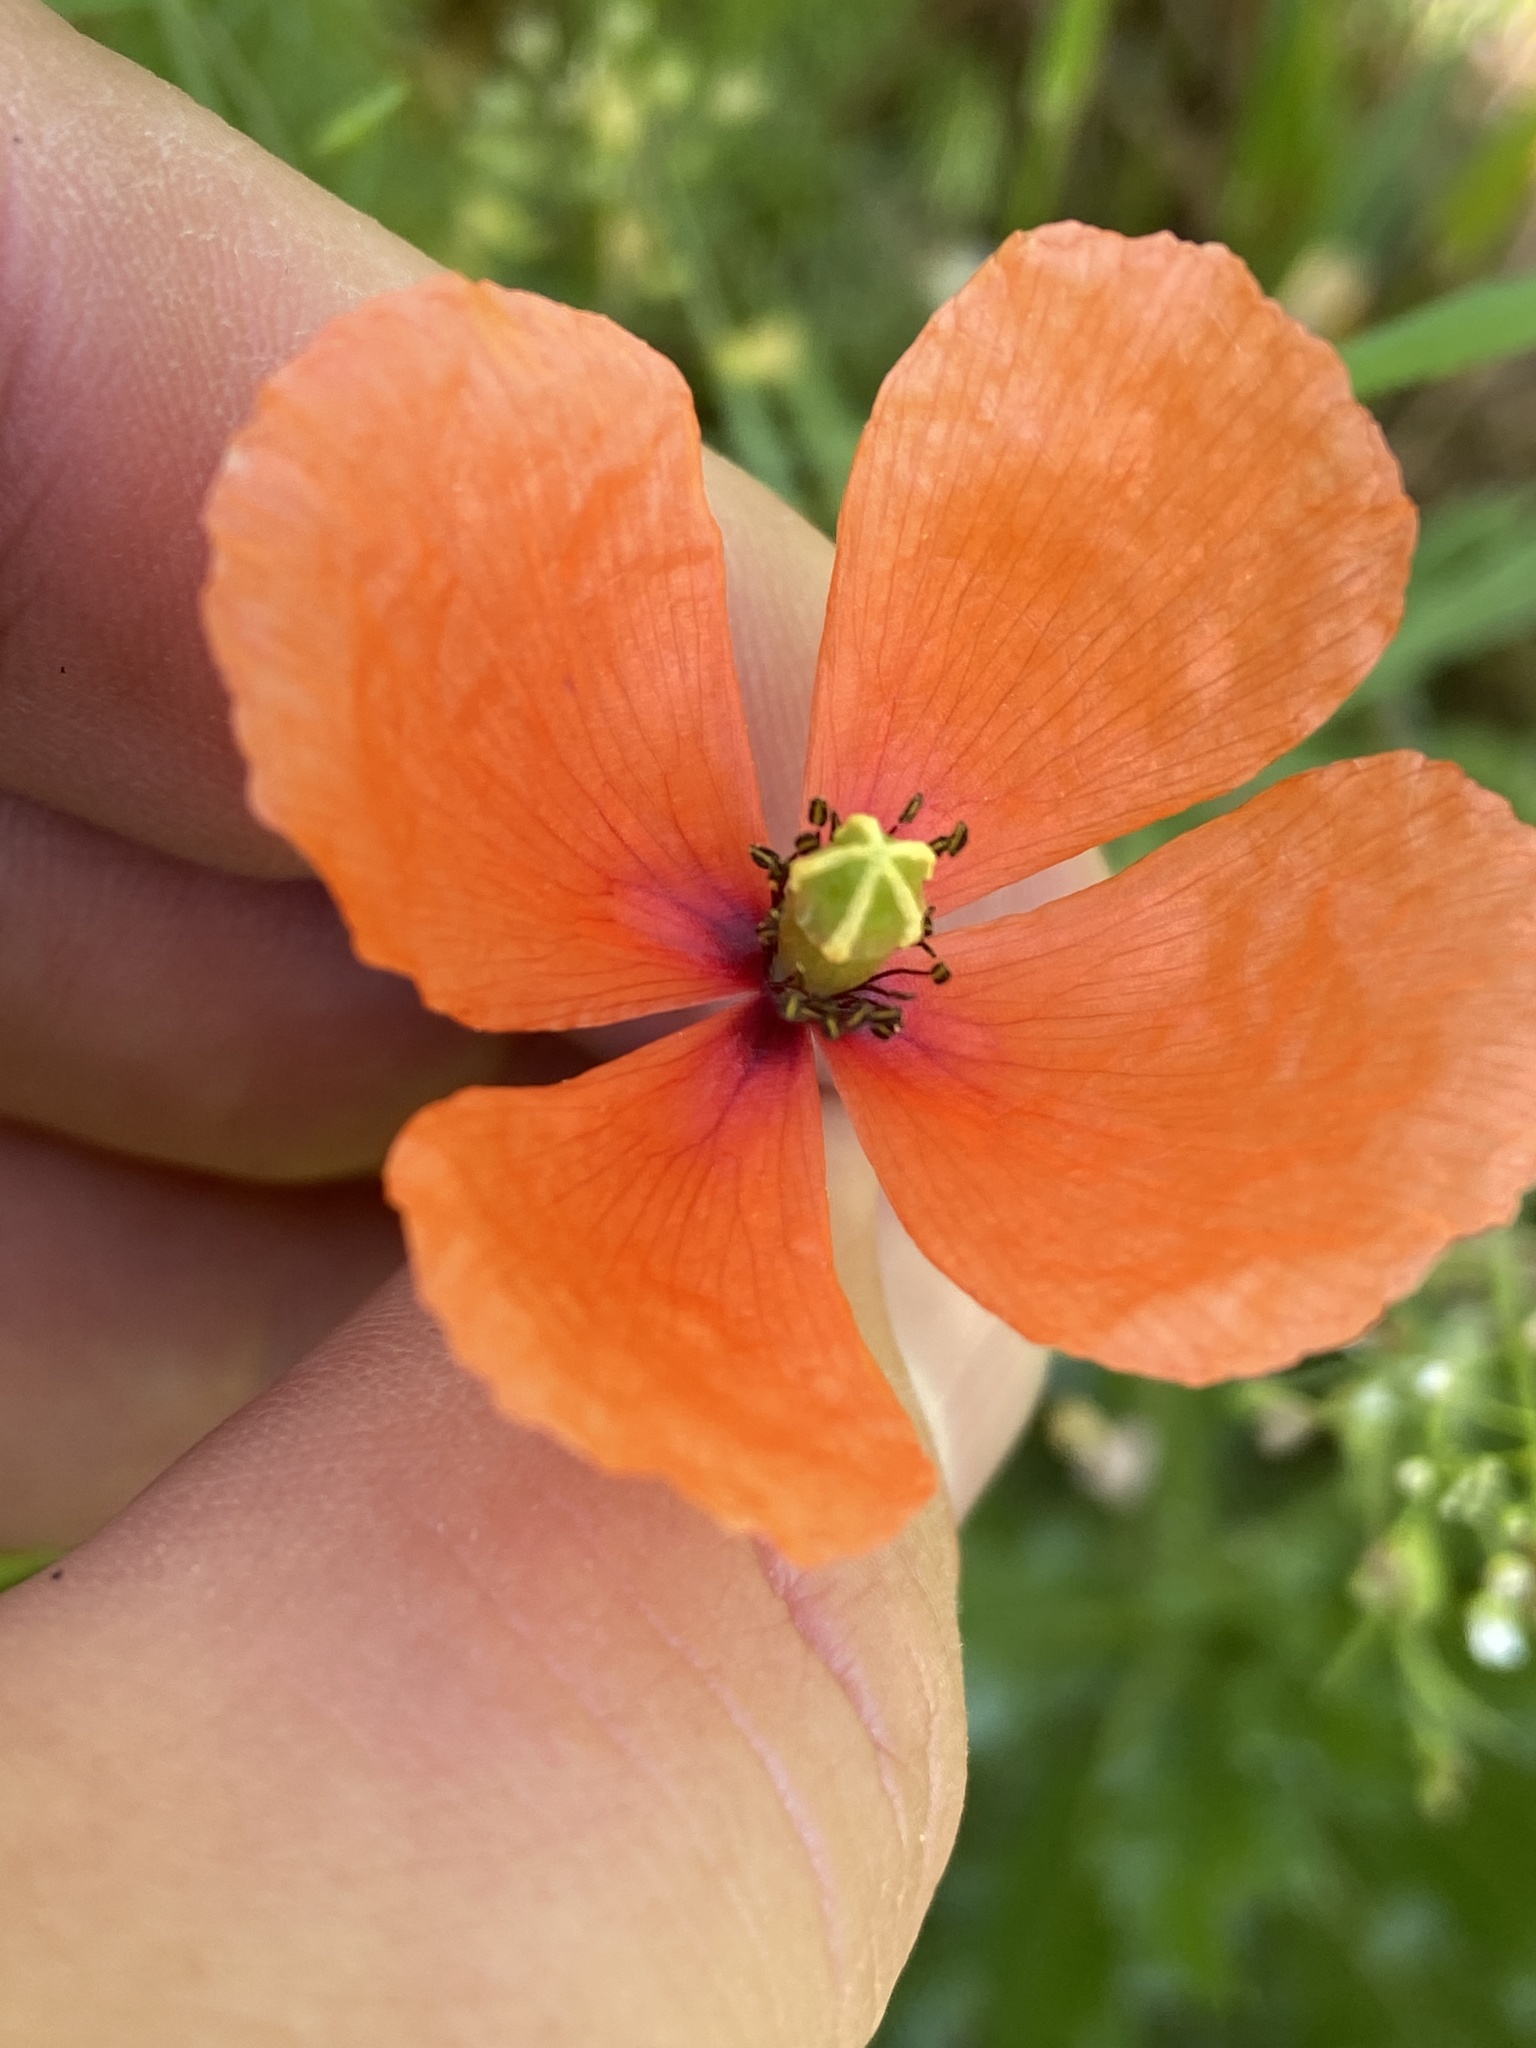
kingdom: Plantae
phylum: Tracheophyta
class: Magnoliopsida
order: Ranunculales
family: Papaveraceae
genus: Papaver
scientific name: Papaver dubium
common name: Long-headed poppy
